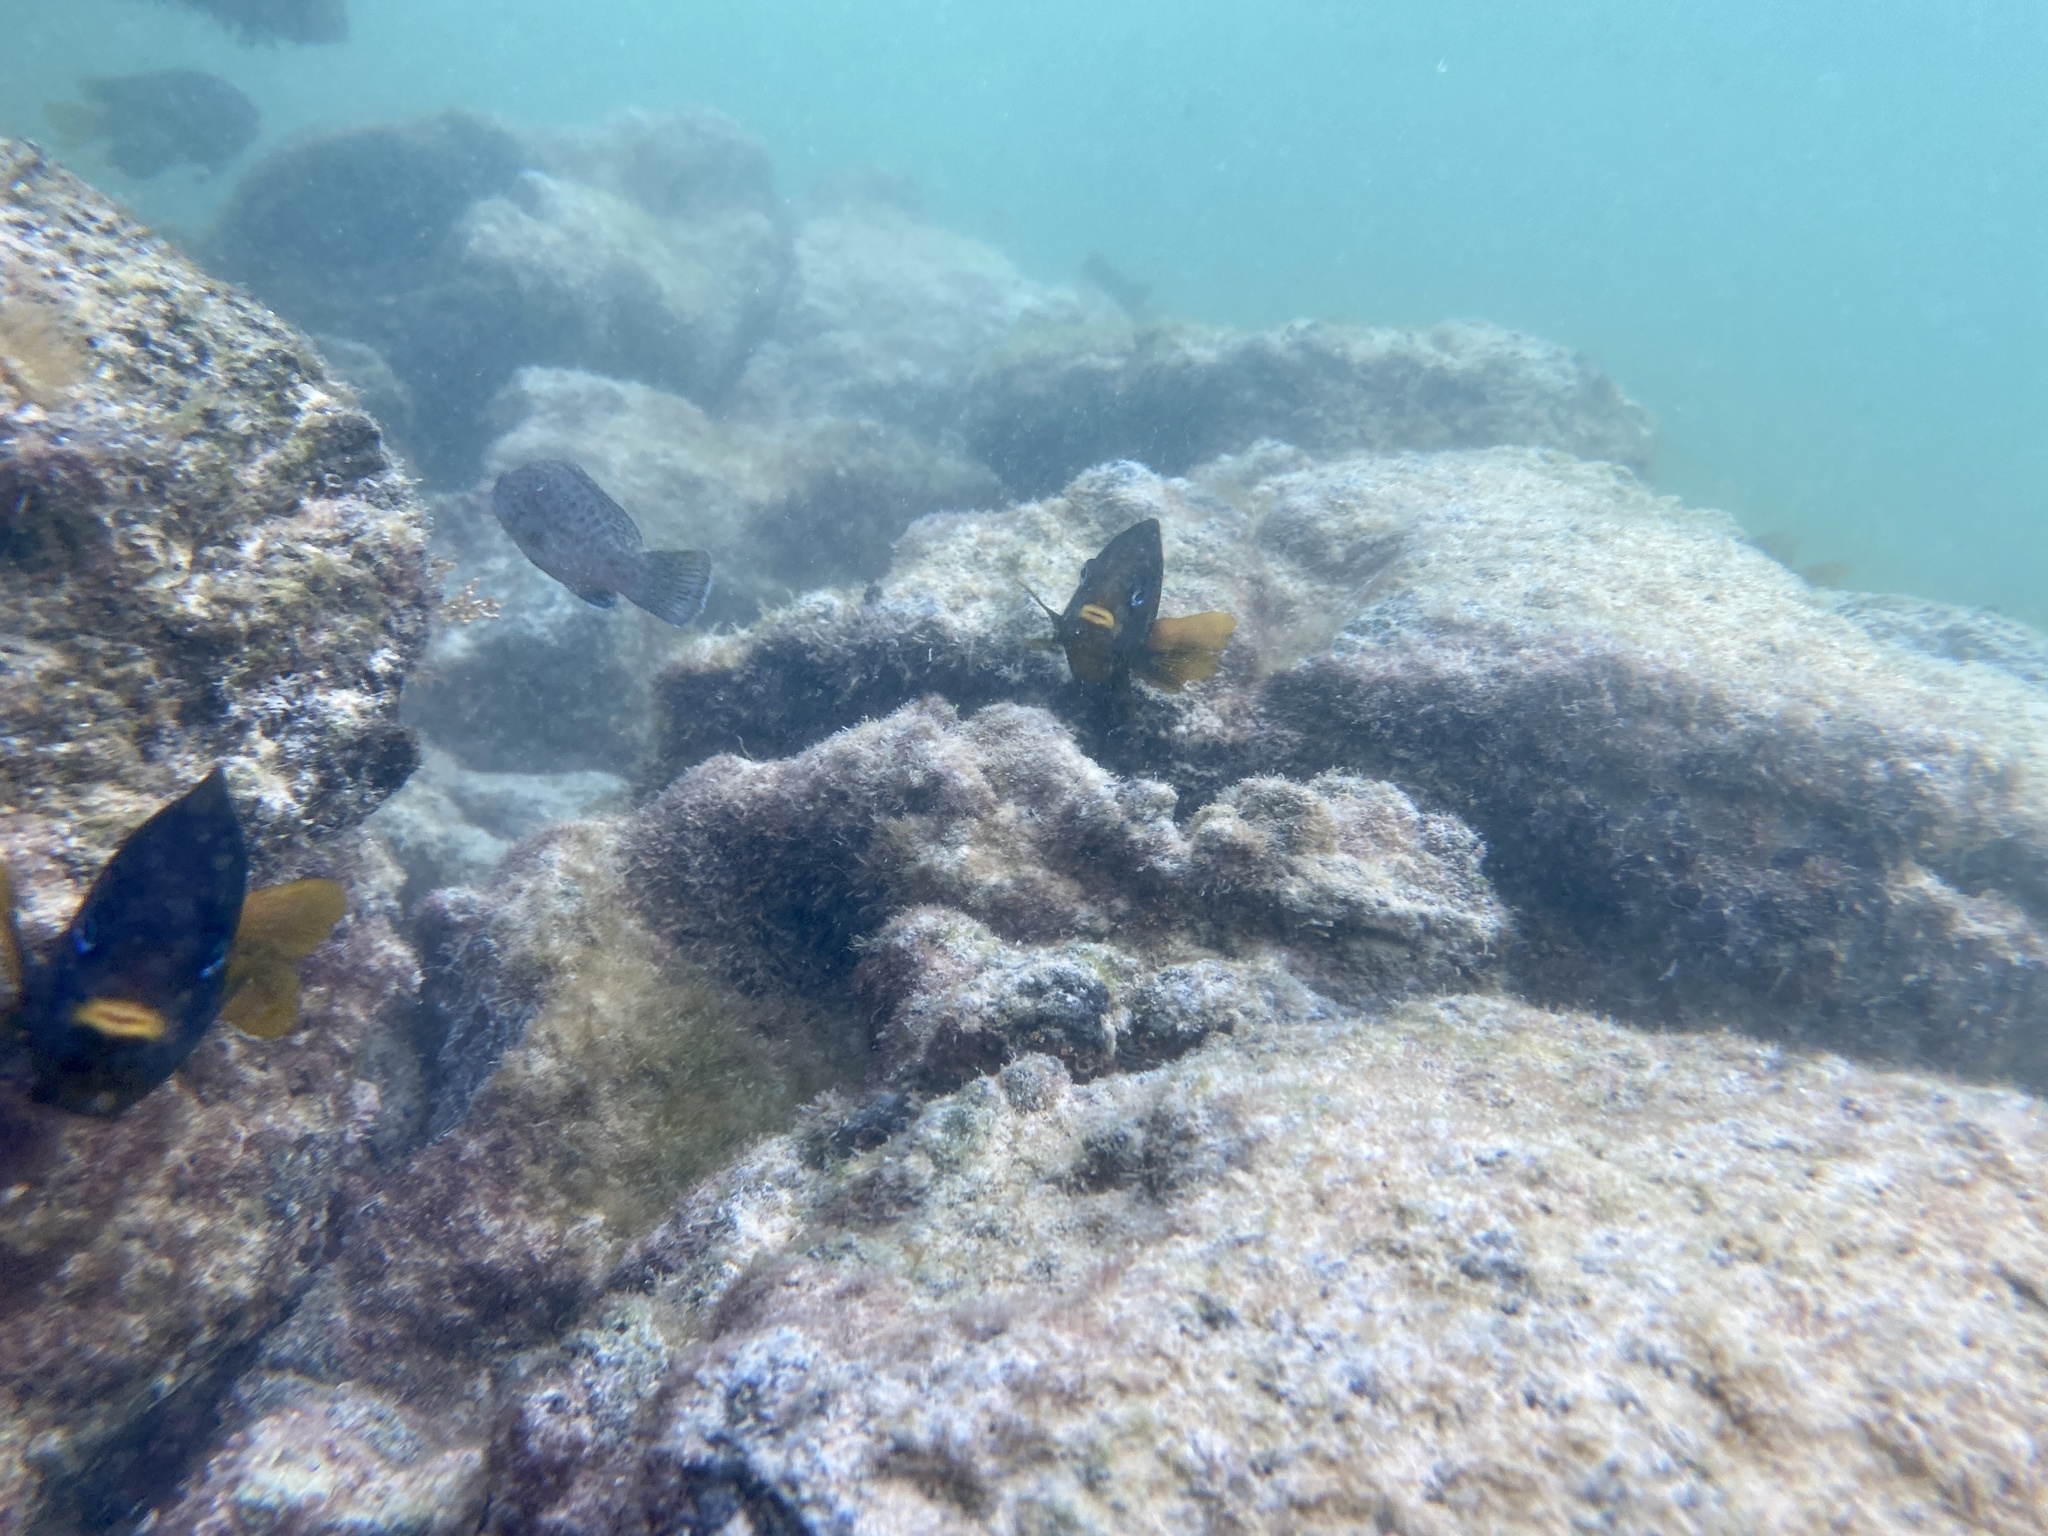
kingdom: Animalia
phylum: Chordata
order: Perciformes
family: Pomacentridae
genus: Stegastes
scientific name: Stegastes arcifrons
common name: Galapagos gregory
